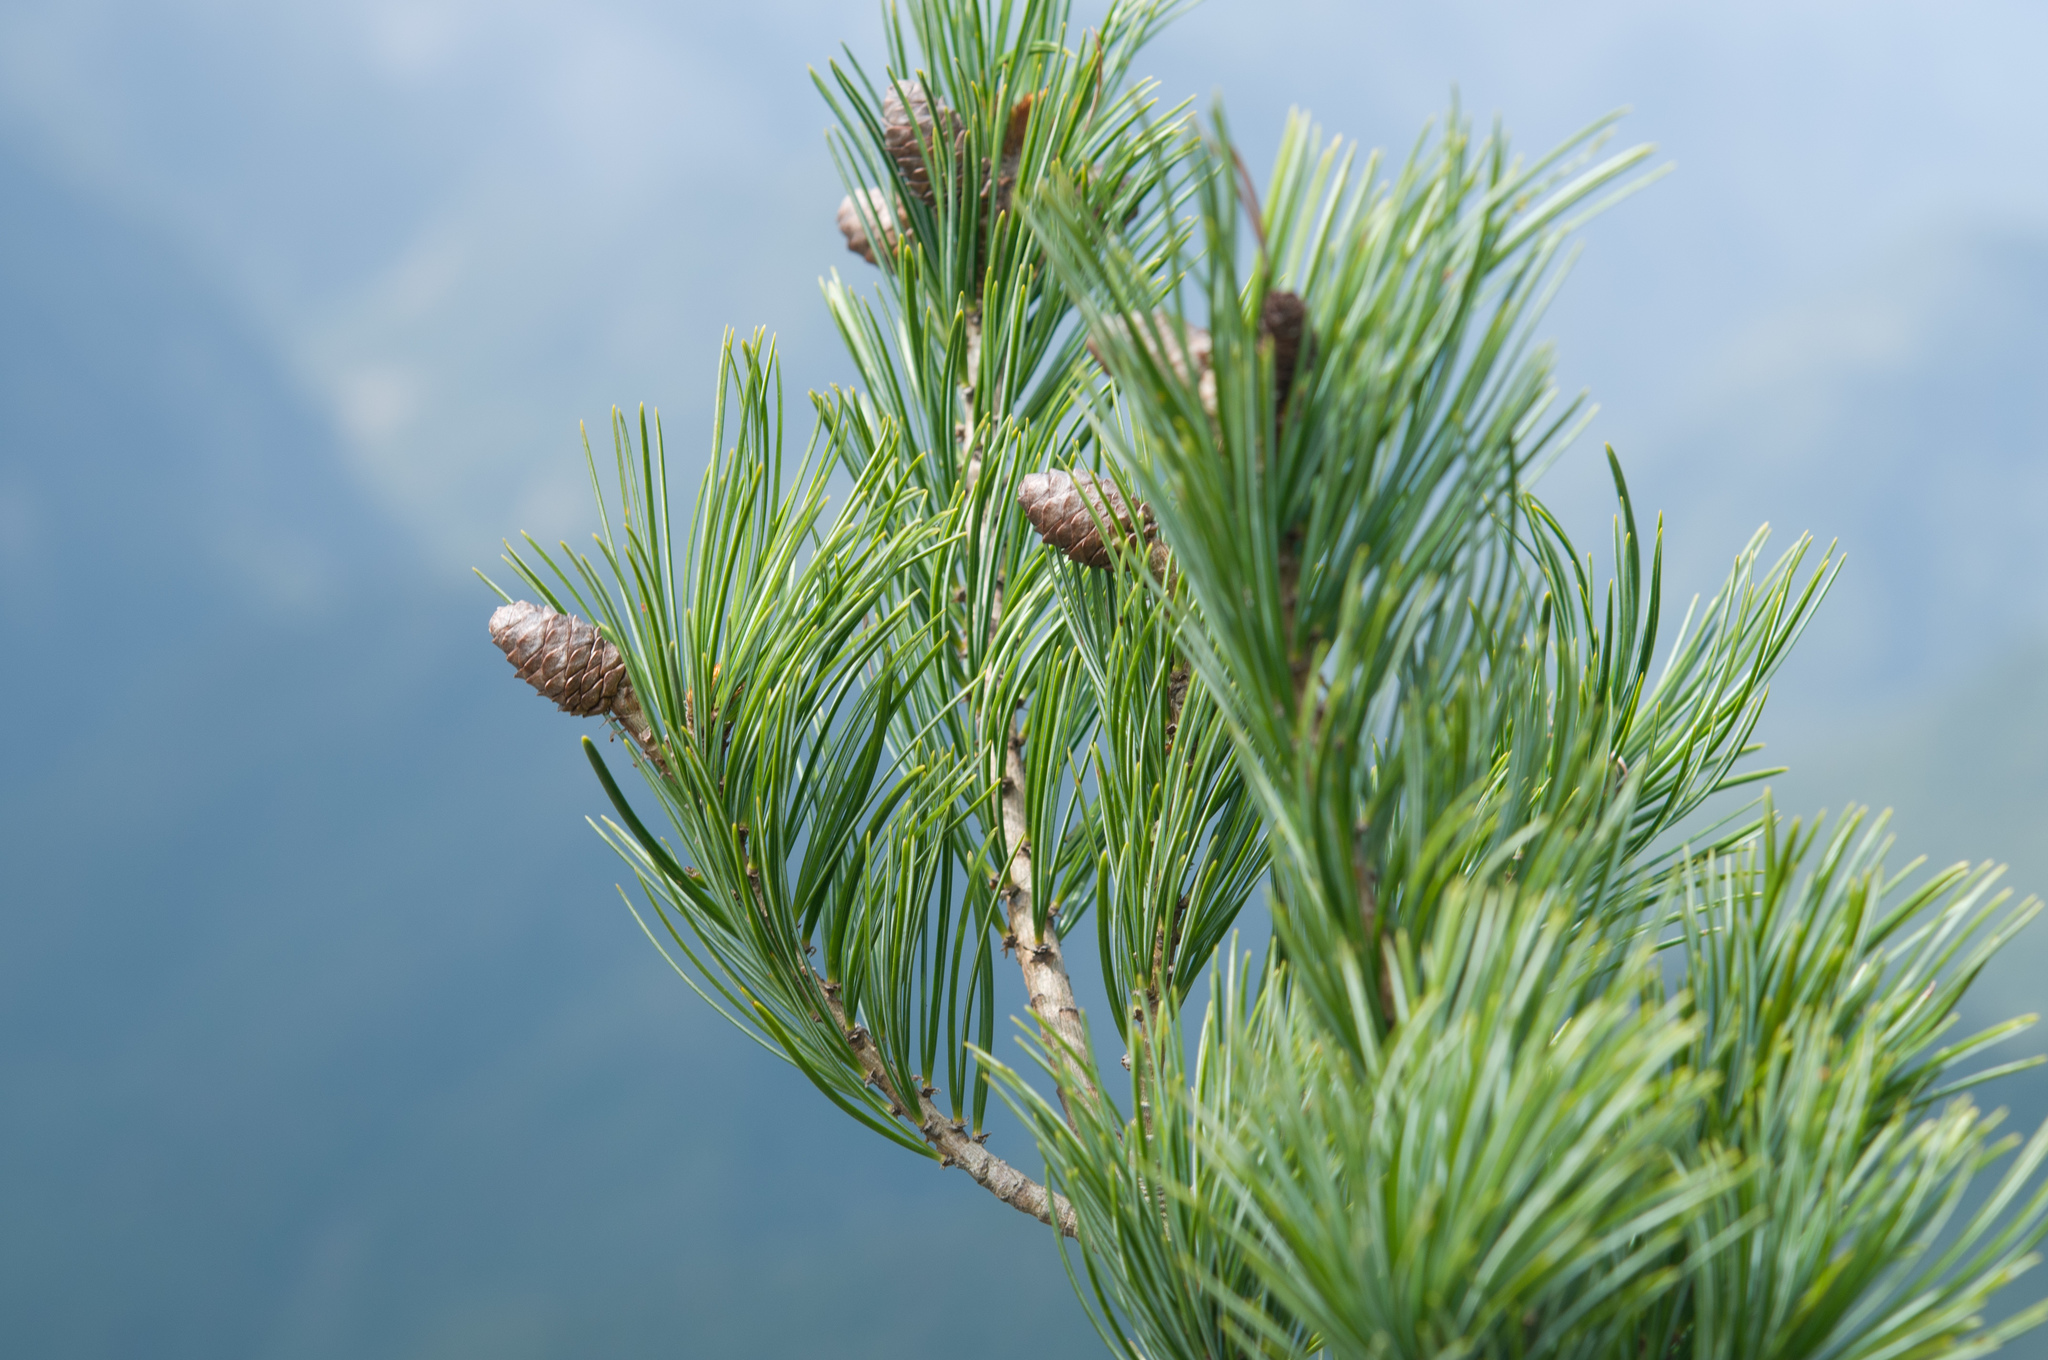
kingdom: Plantae
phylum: Tracheophyta
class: Pinopsida
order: Pinales
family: Pinaceae
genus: Pinus
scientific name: Pinus armandii
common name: Armand's pine
